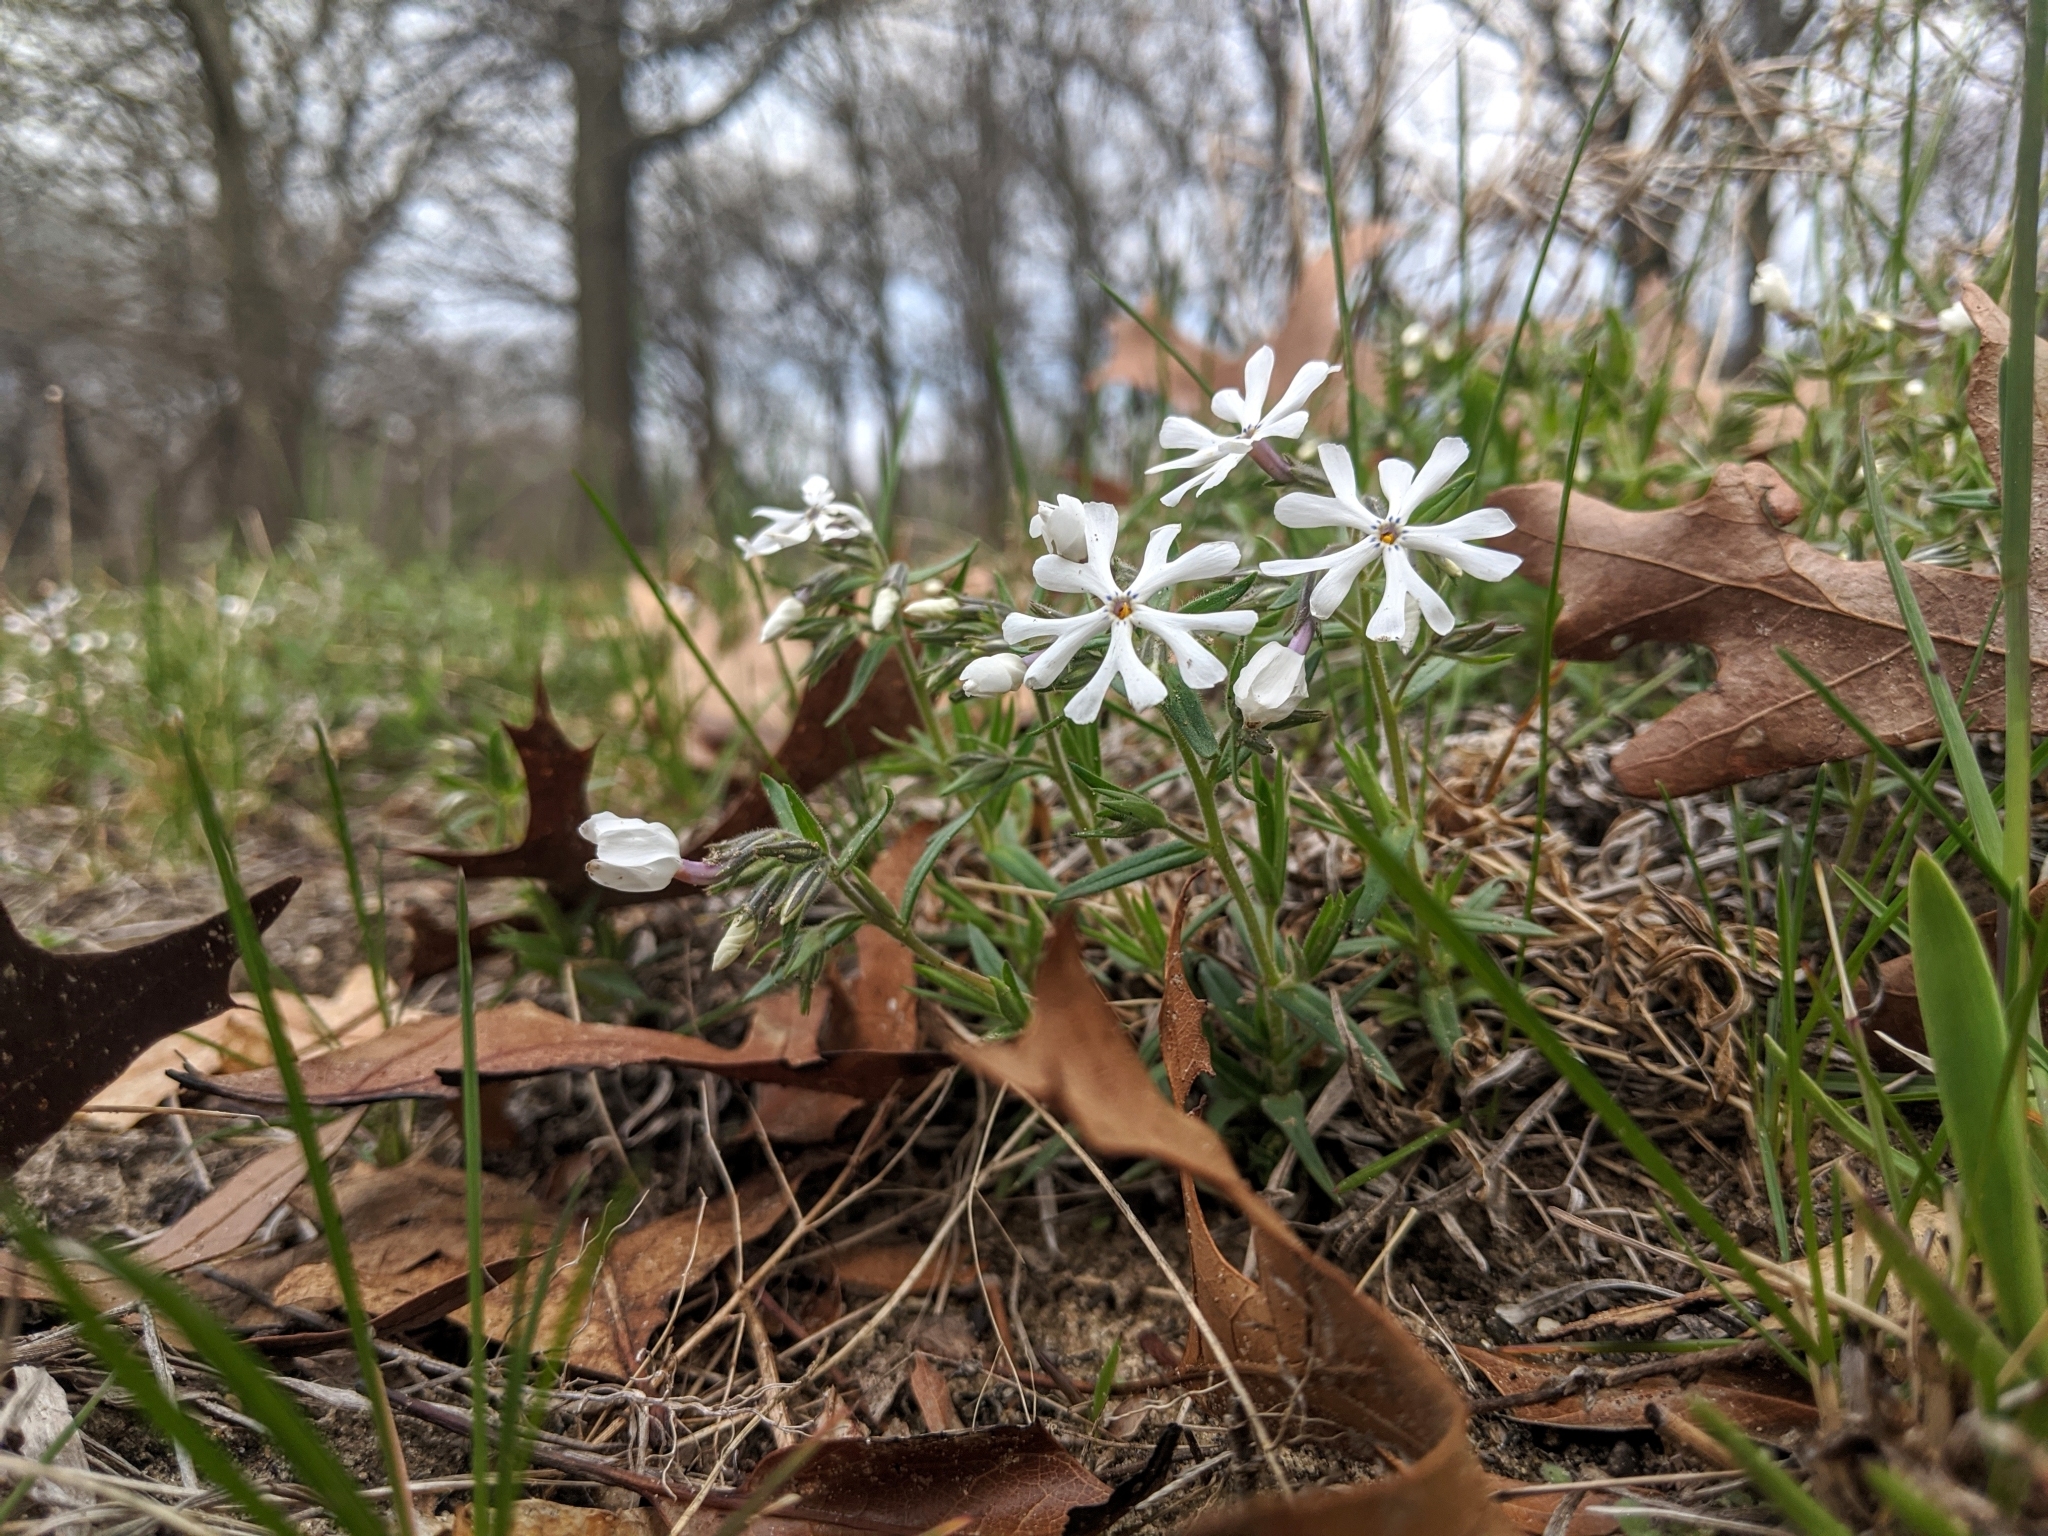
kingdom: Plantae
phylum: Tracheophyta
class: Magnoliopsida
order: Ericales
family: Polemoniaceae
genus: Phlox
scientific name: Phlox bifida
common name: Sand phlox
